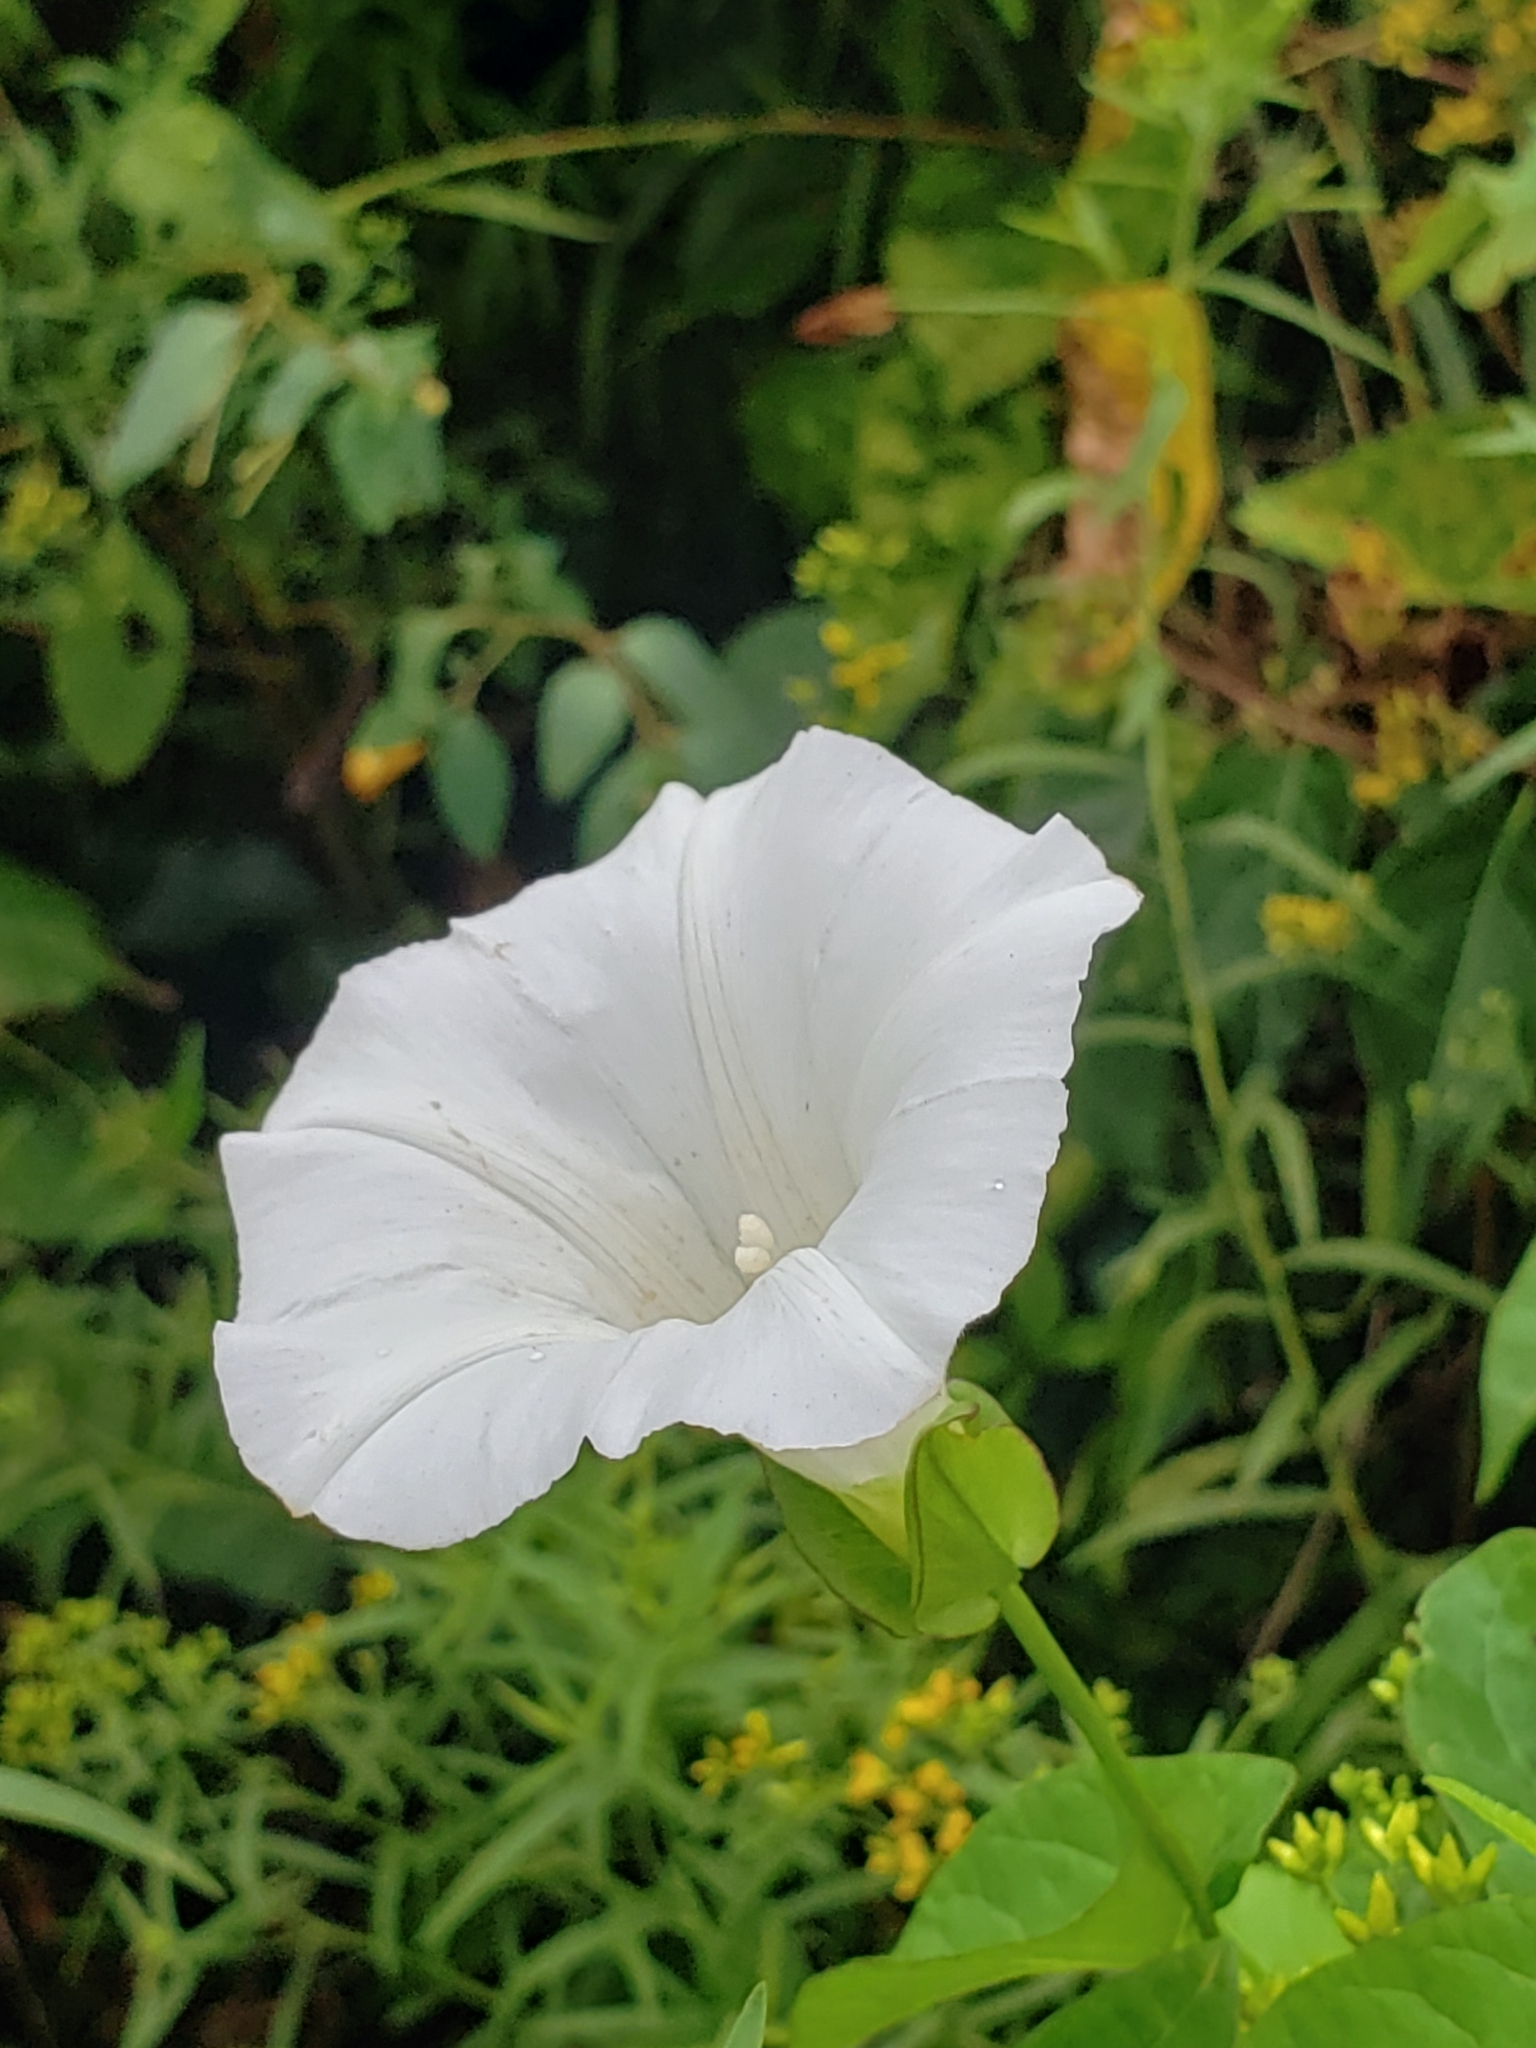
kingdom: Plantae
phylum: Tracheophyta
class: Magnoliopsida
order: Solanales
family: Convolvulaceae
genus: Calystegia
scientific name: Calystegia sepium
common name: Hedge bindweed
